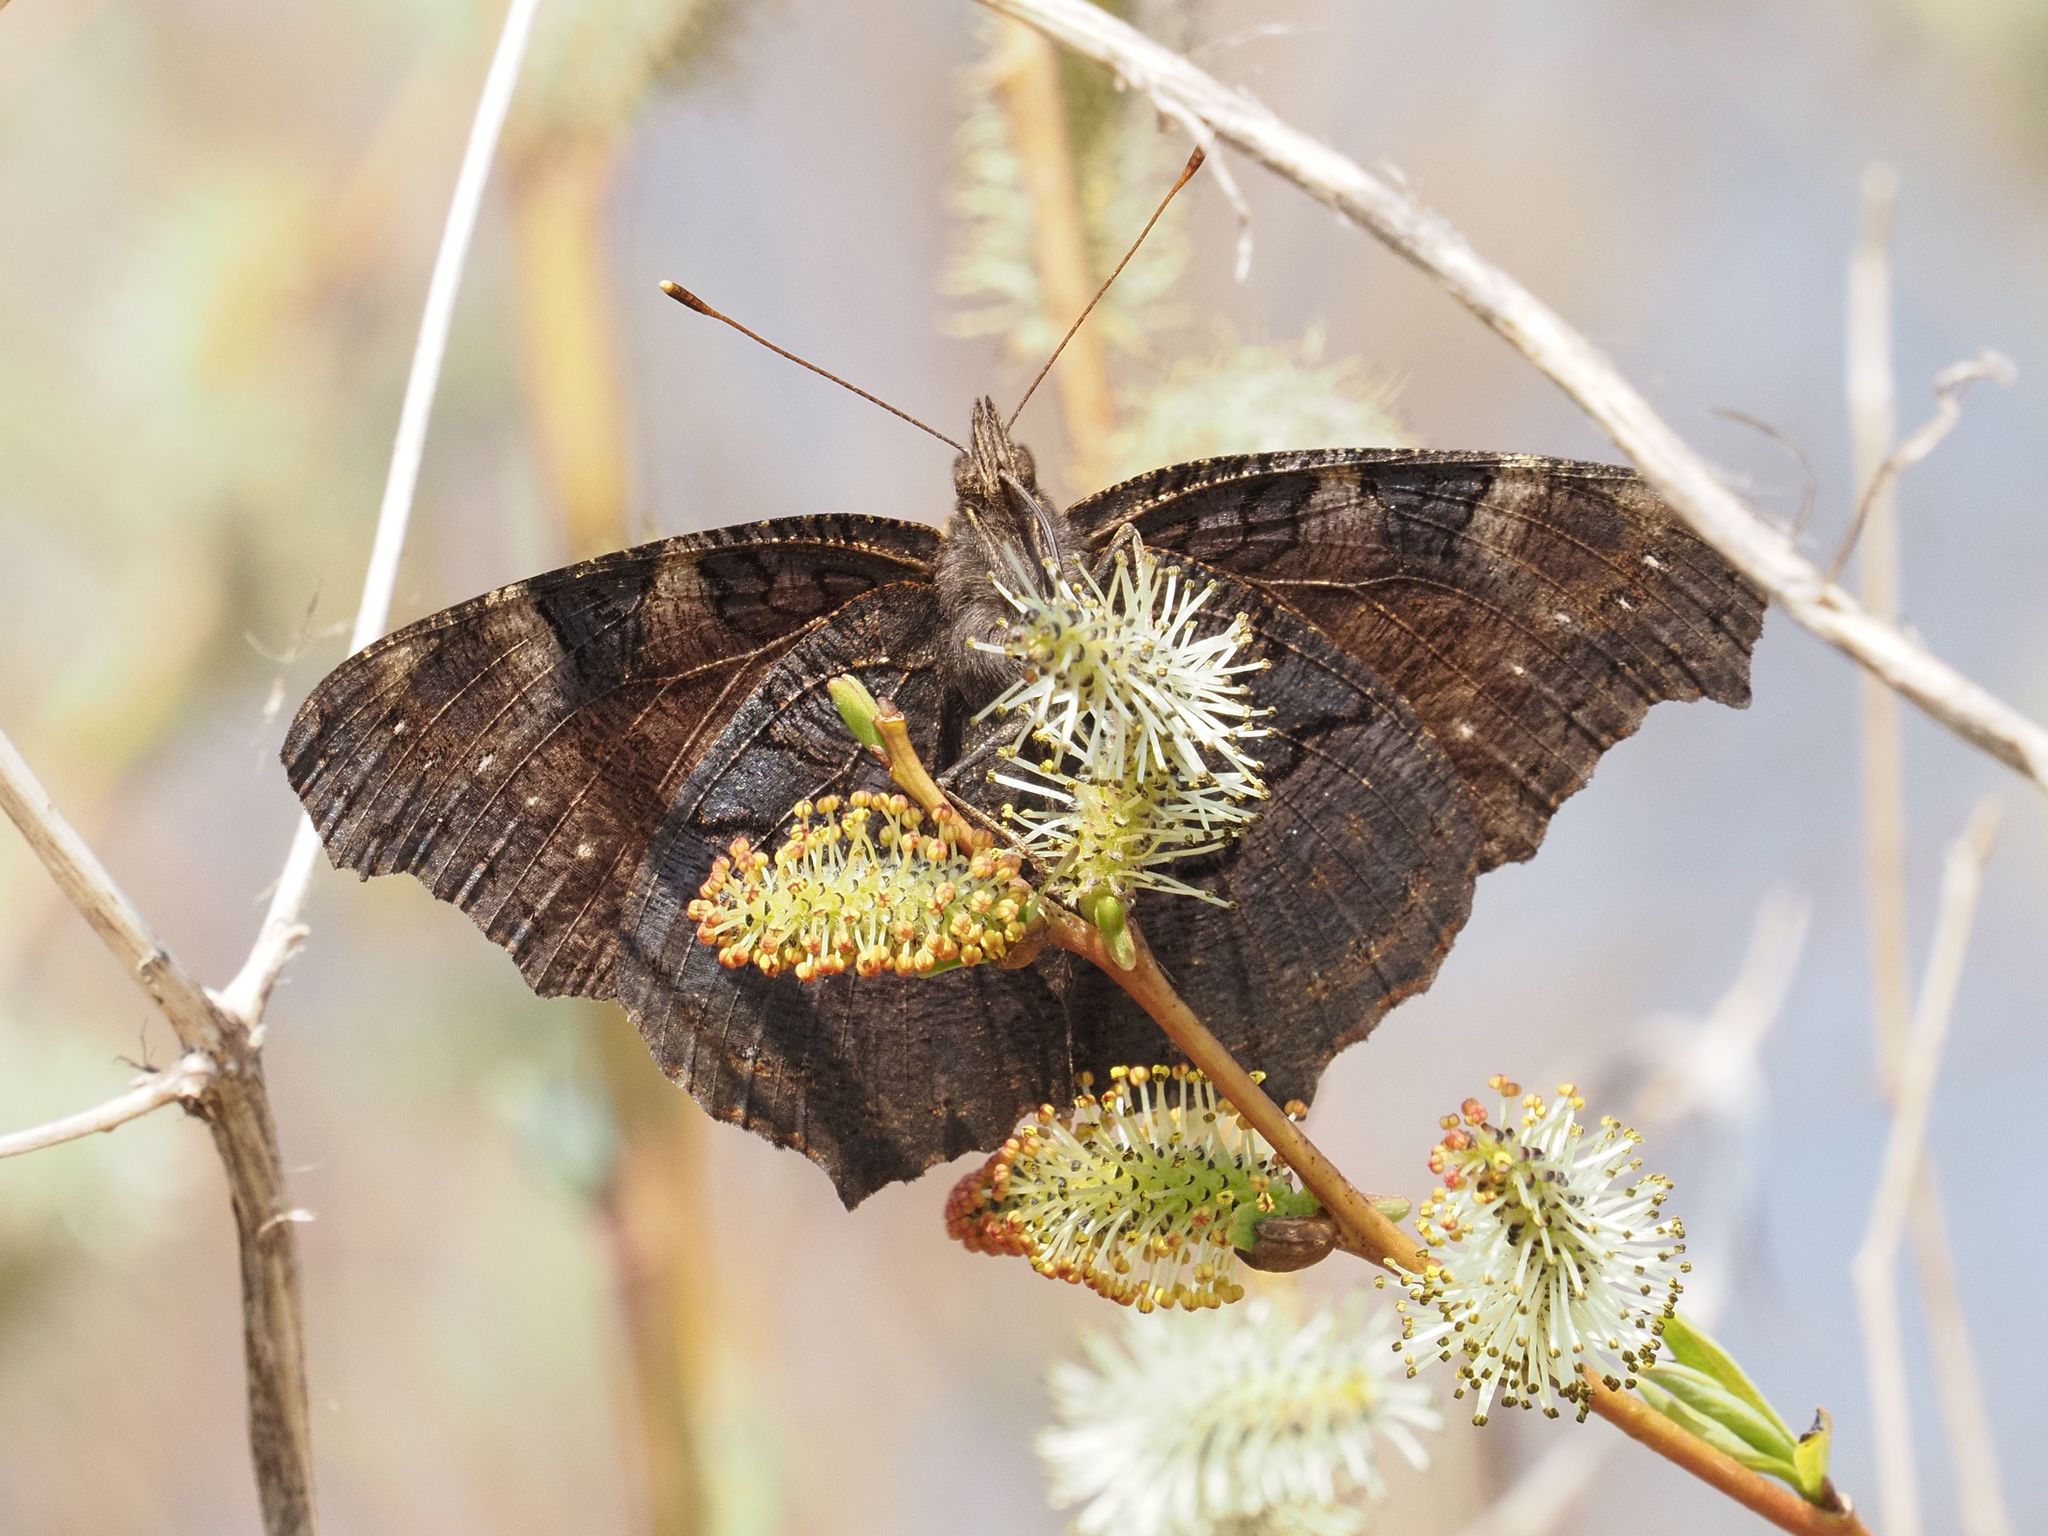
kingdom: Animalia
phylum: Arthropoda
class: Insecta
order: Lepidoptera
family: Nymphalidae
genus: Aglais
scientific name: Aglais io
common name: Peacock
